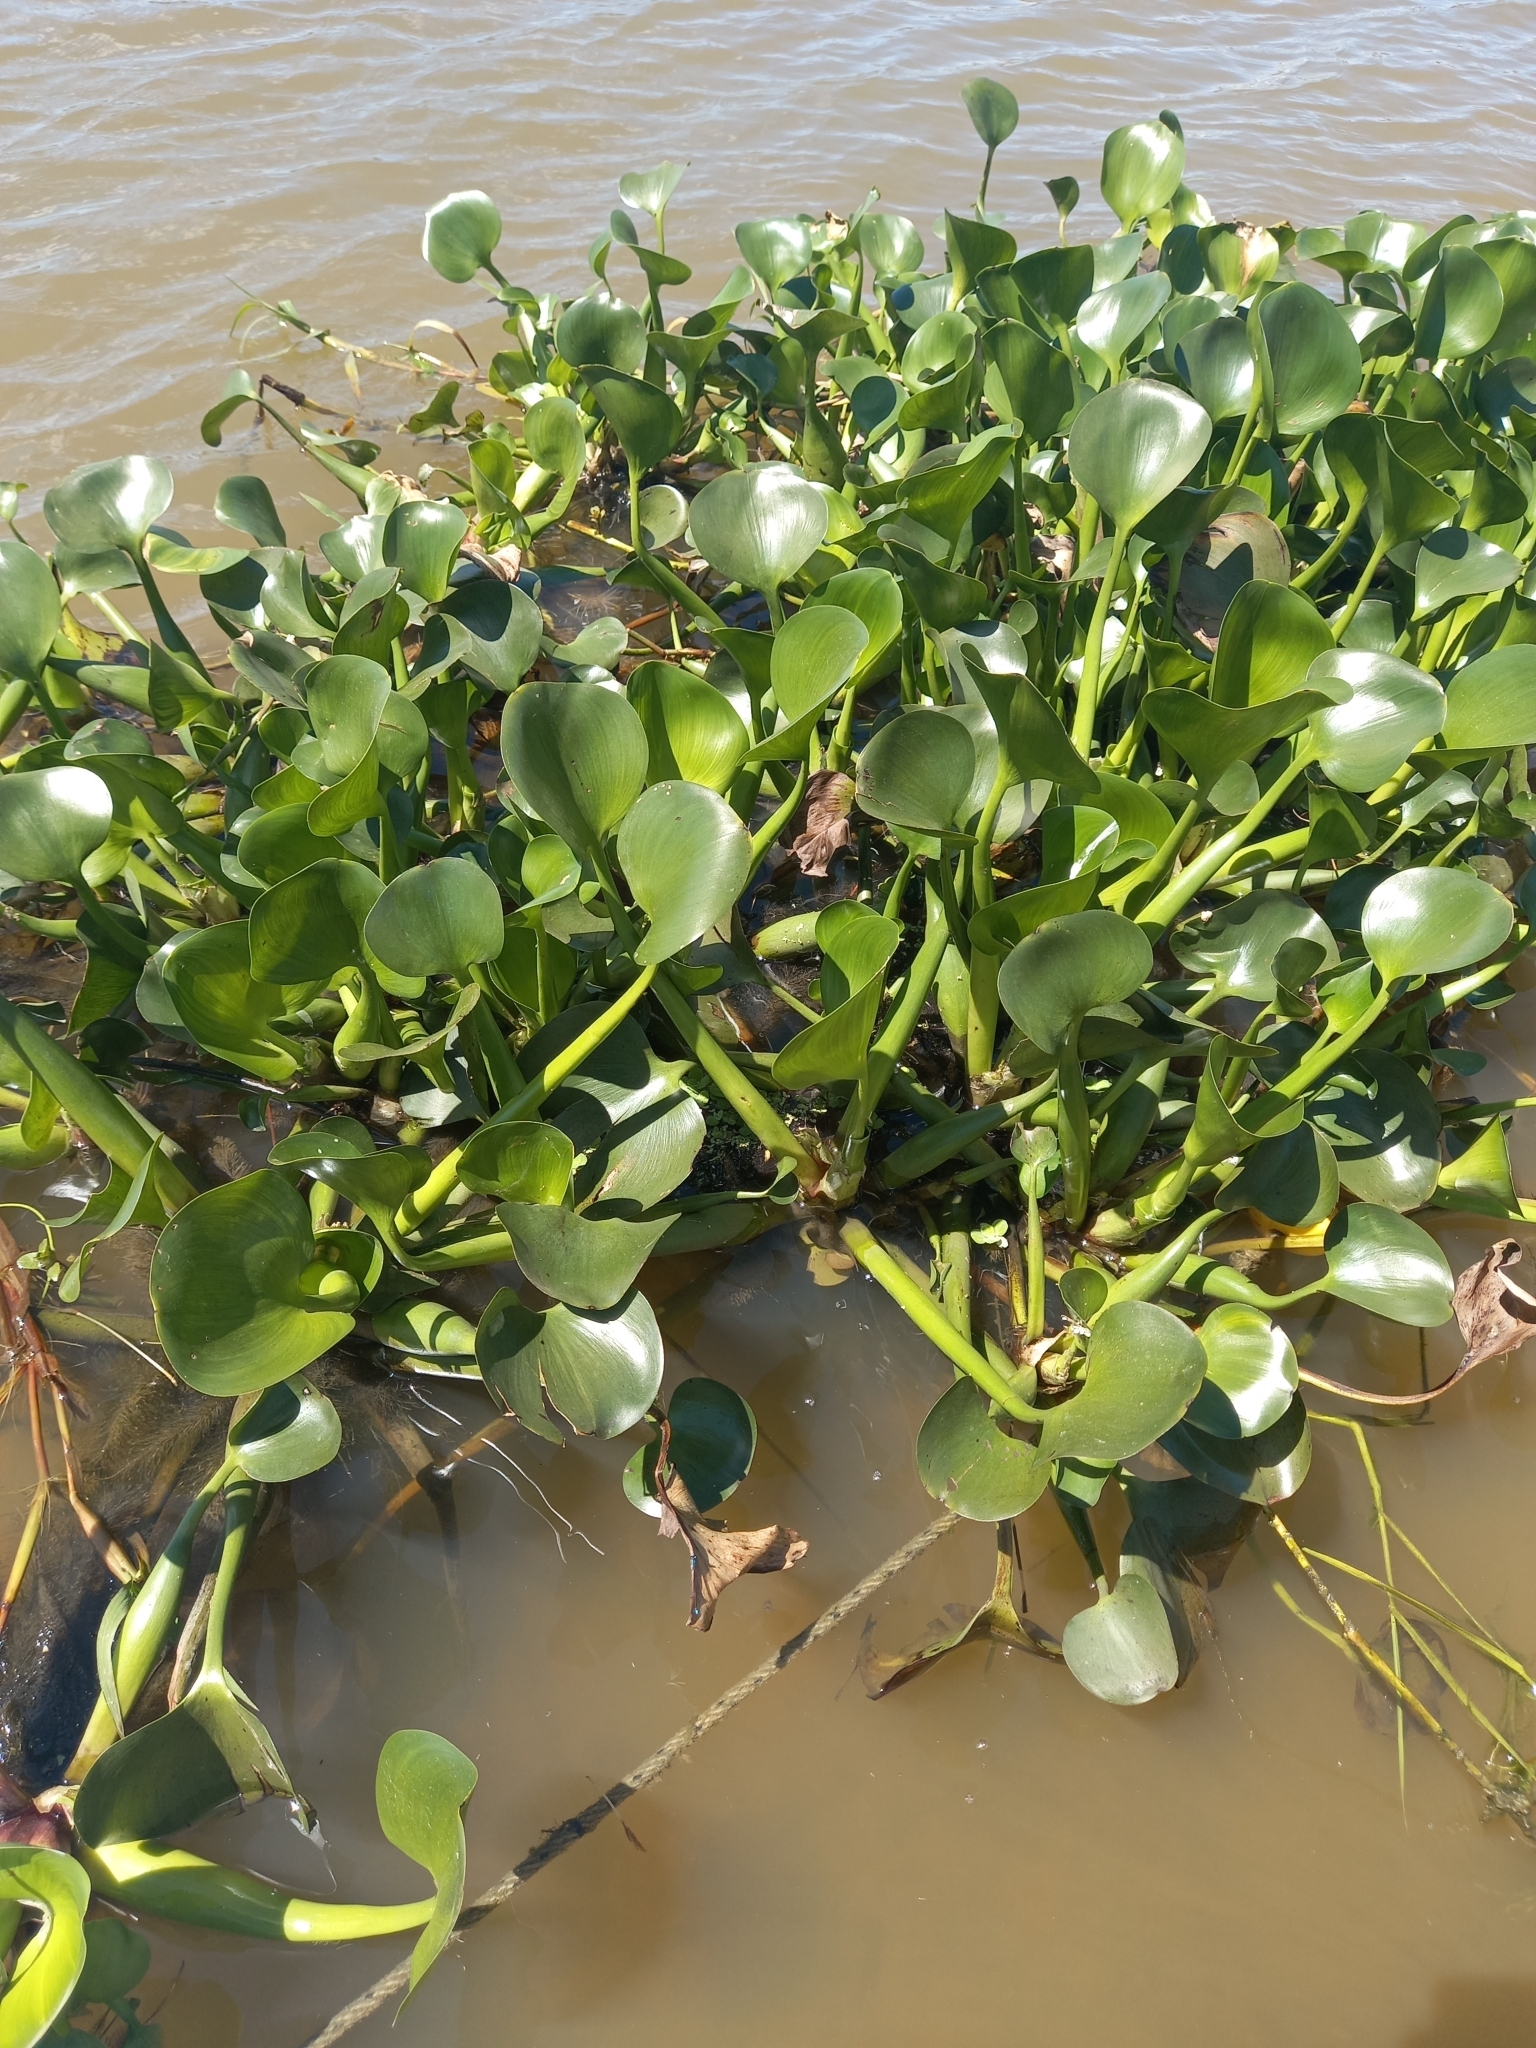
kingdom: Plantae
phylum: Tracheophyta
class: Liliopsida
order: Commelinales
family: Pontederiaceae
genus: Pontederia
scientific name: Pontederia crassipes
